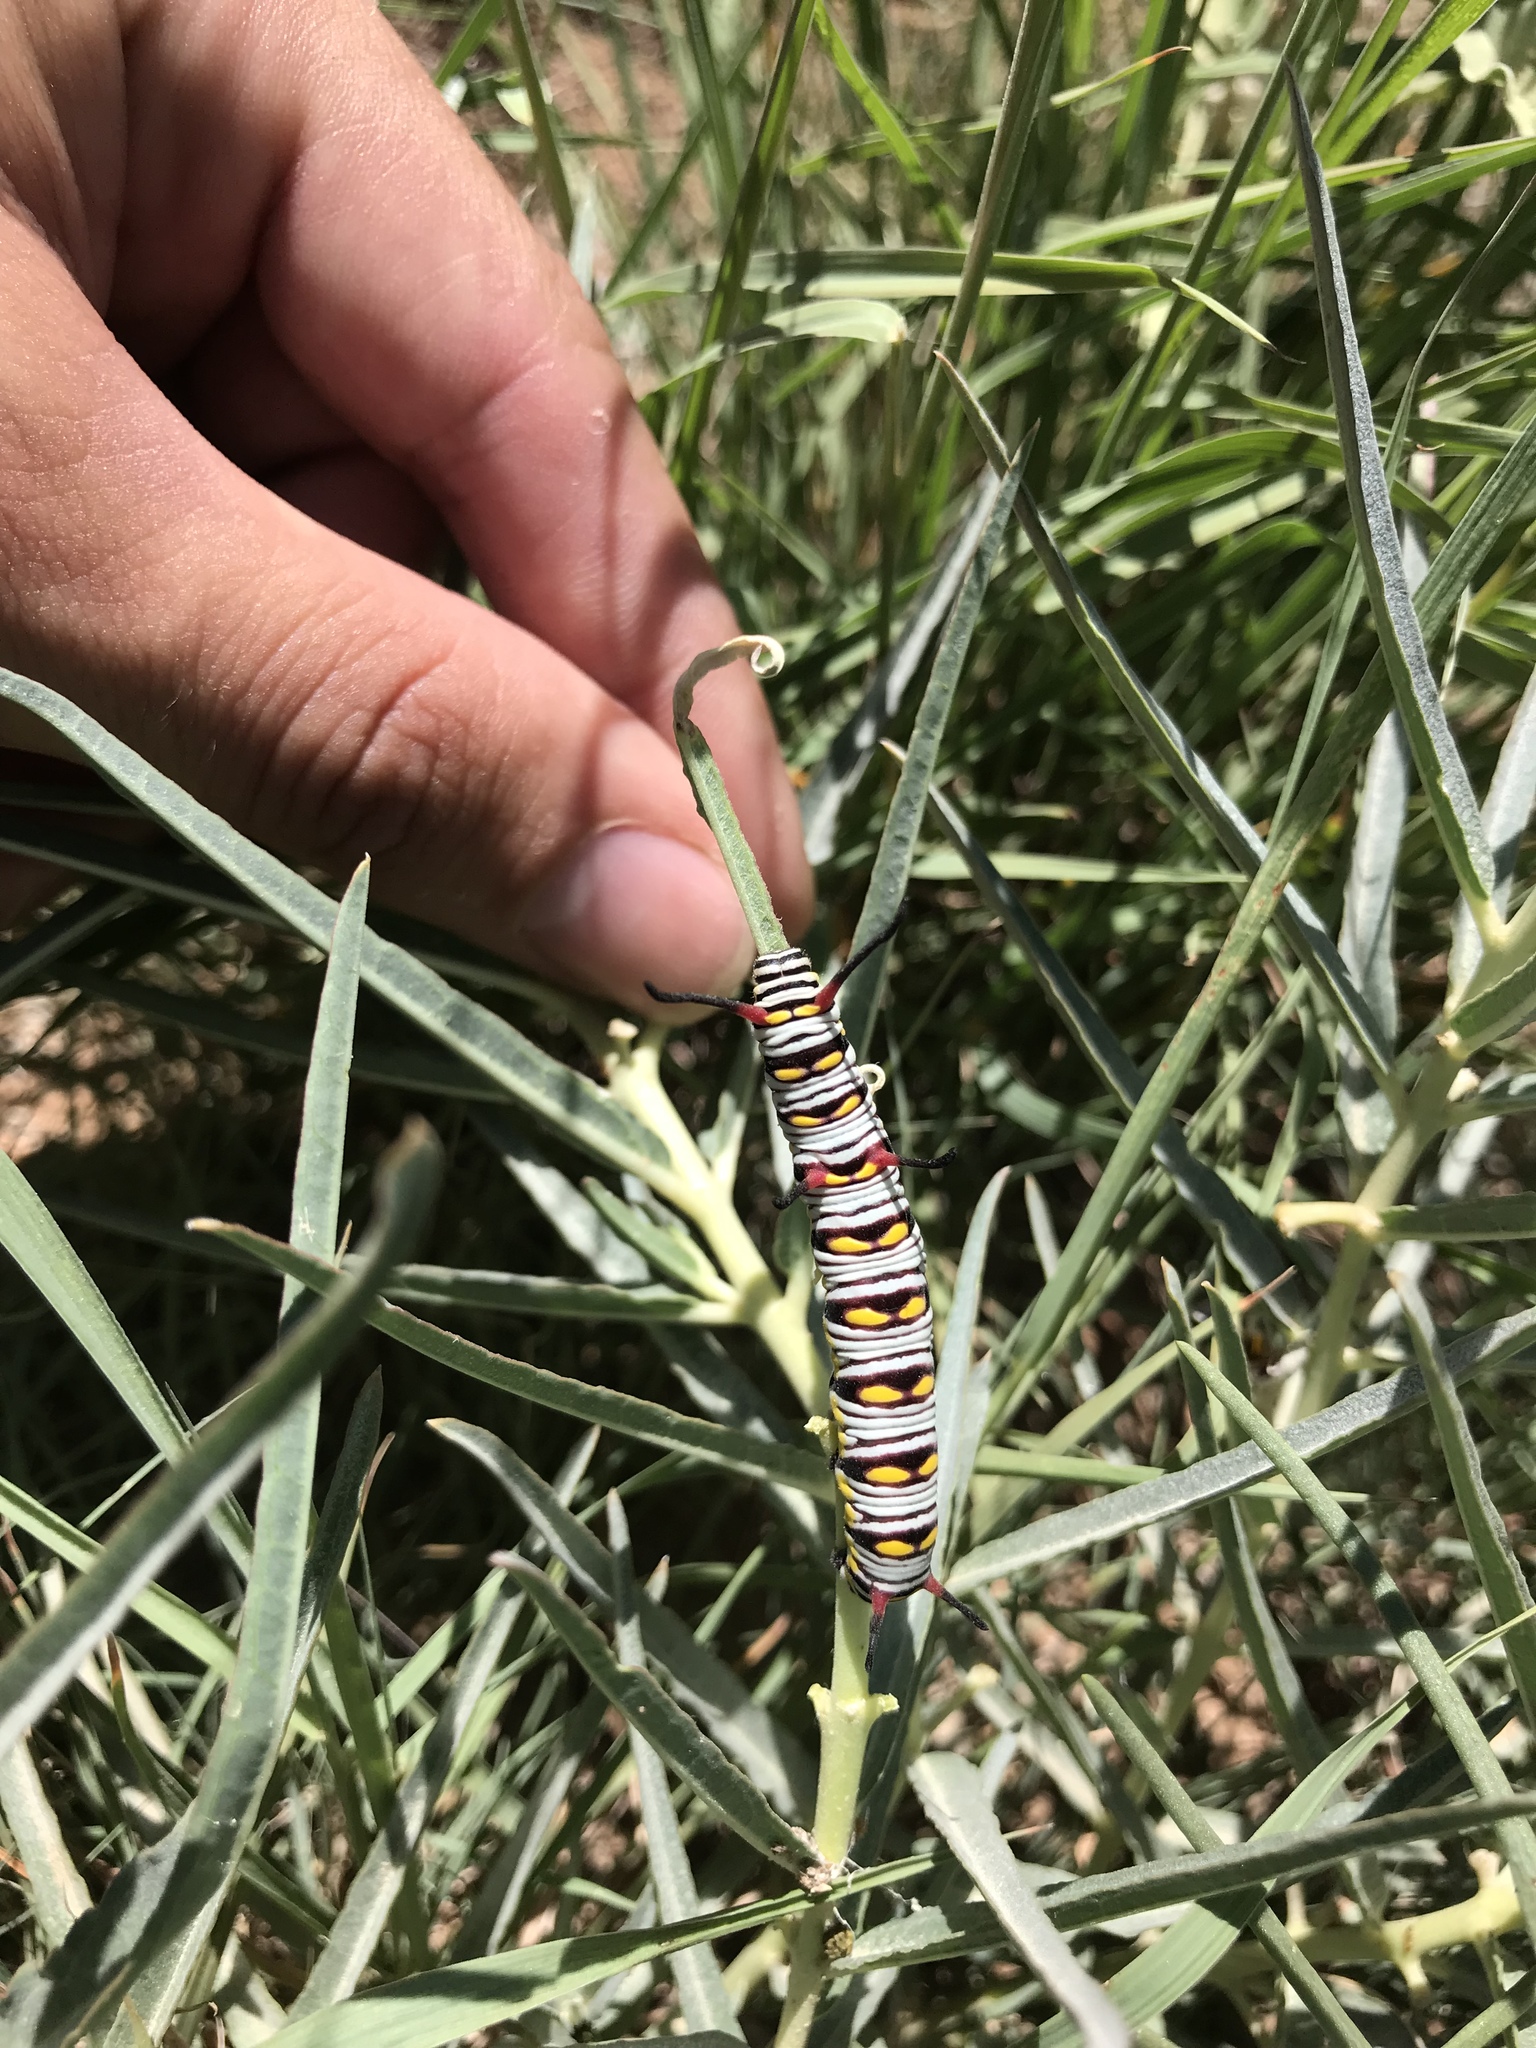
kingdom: Animalia
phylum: Arthropoda
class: Insecta
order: Lepidoptera
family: Nymphalidae
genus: Danaus
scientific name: Danaus gilippus
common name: Queen
